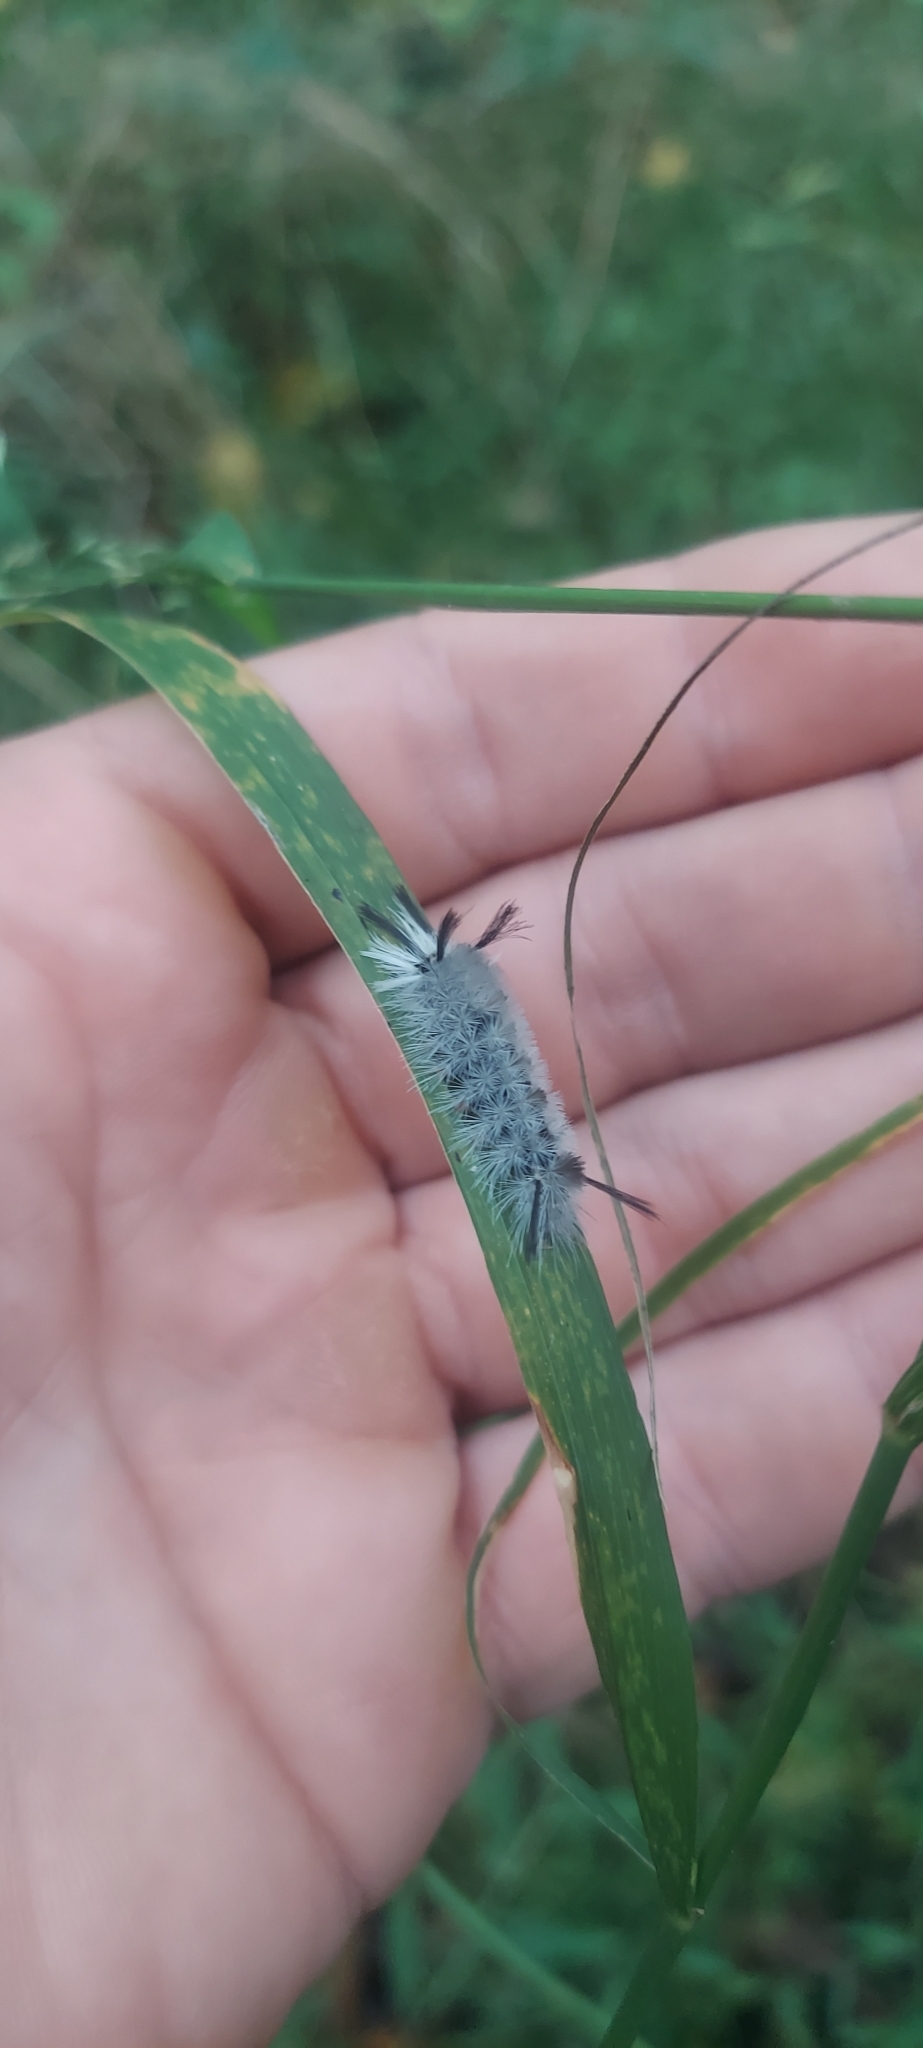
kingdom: Animalia
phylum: Arthropoda
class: Insecta
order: Lepidoptera
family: Erebidae
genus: Halysidota
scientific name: Halysidota tessellaris
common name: Banded tussock moth
